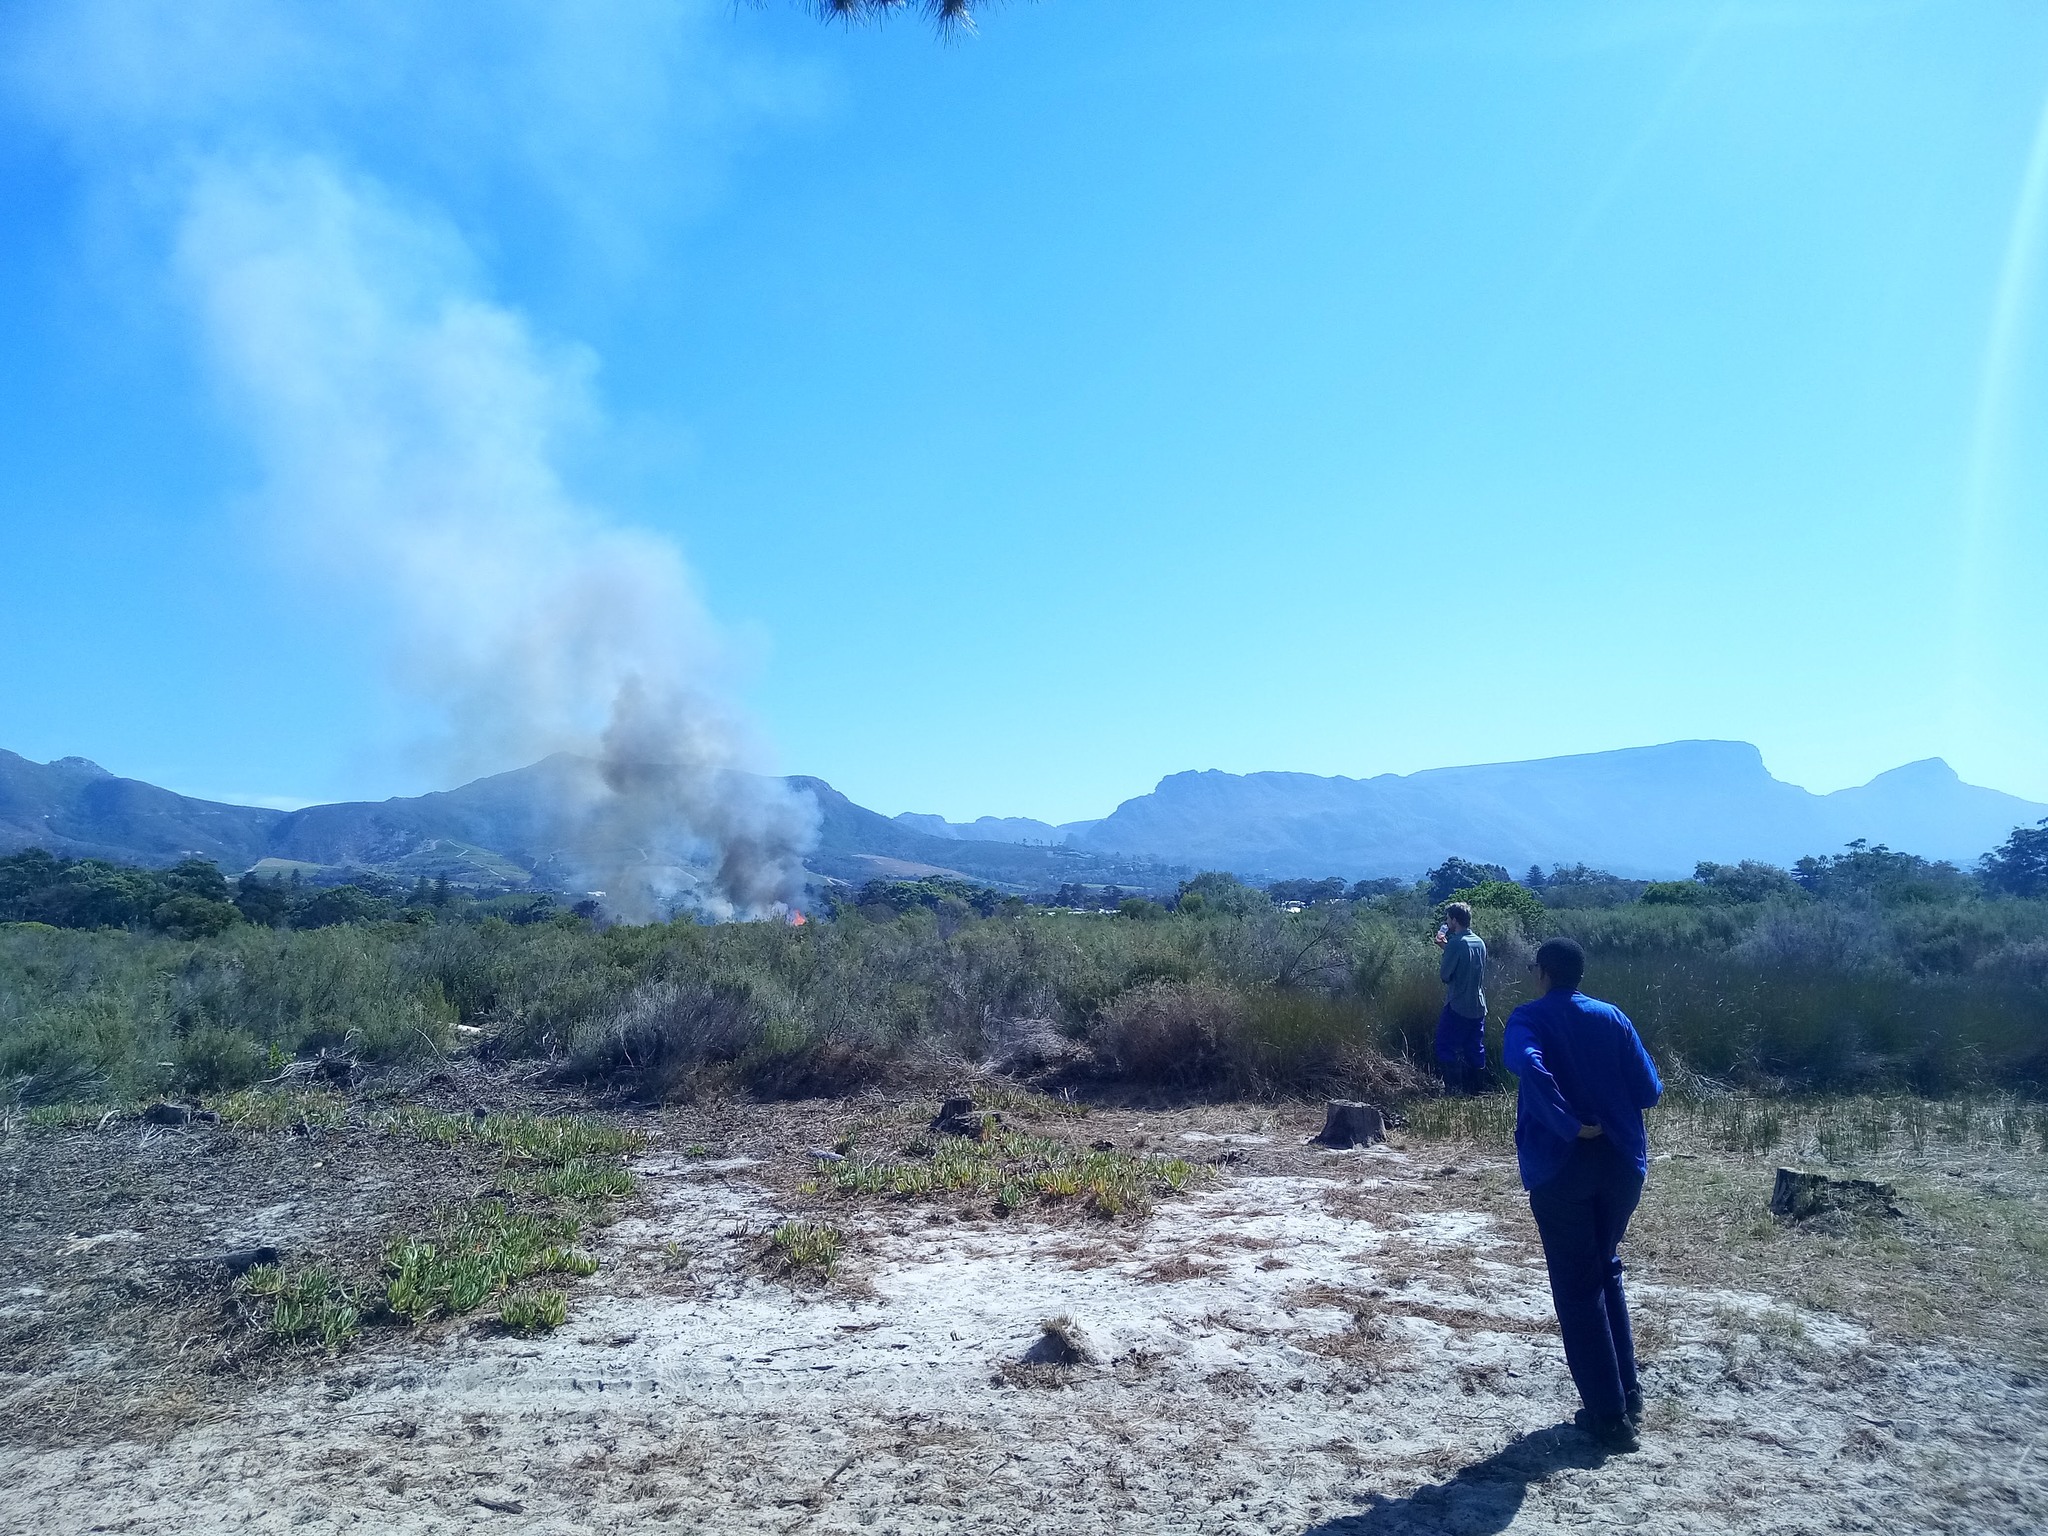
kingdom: Plantae
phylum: Tracheophyta
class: Liliopsida
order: Poales
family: Restionaceae
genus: Willdenowia
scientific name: Willdenowia sulcata
